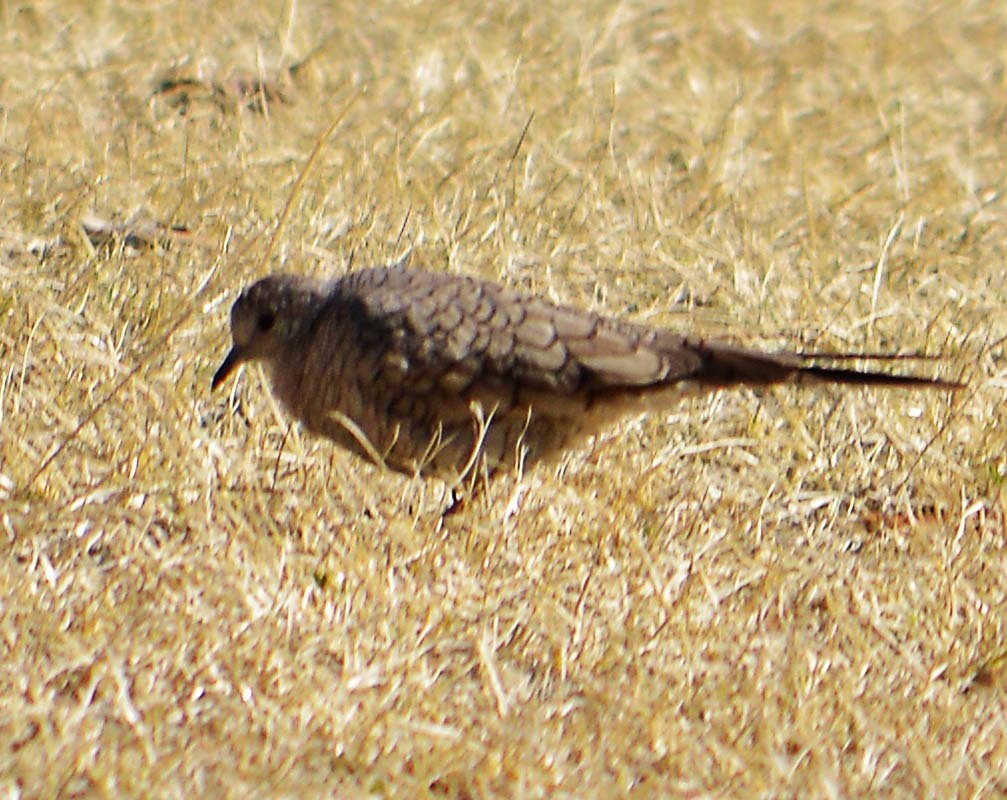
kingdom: Animalia
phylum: Chordata
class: Aves
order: Columbiformes
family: Columbidae
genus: Columbina
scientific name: Columbina inca
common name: Inca dove
